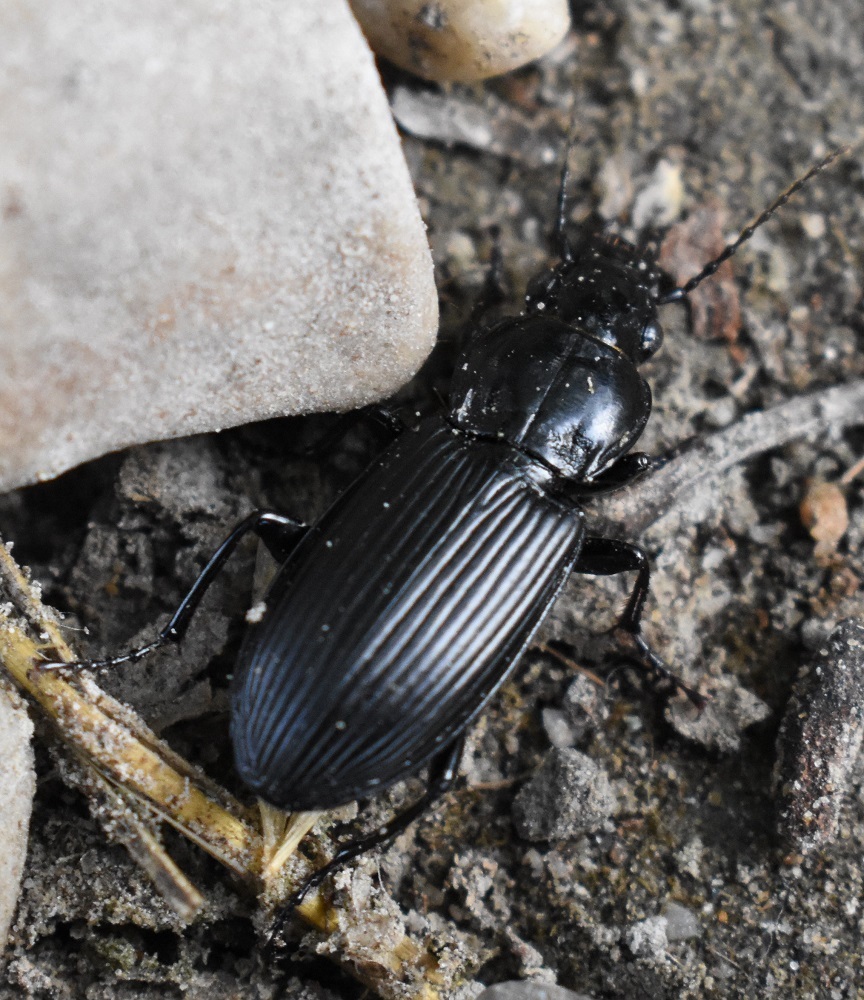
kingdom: Animalia
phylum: Arthropoda
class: Insecta
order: Coleoptera
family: Carabidae
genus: Pterostichus
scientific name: Pterostichus melanarius
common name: European dark harp ground beetle
